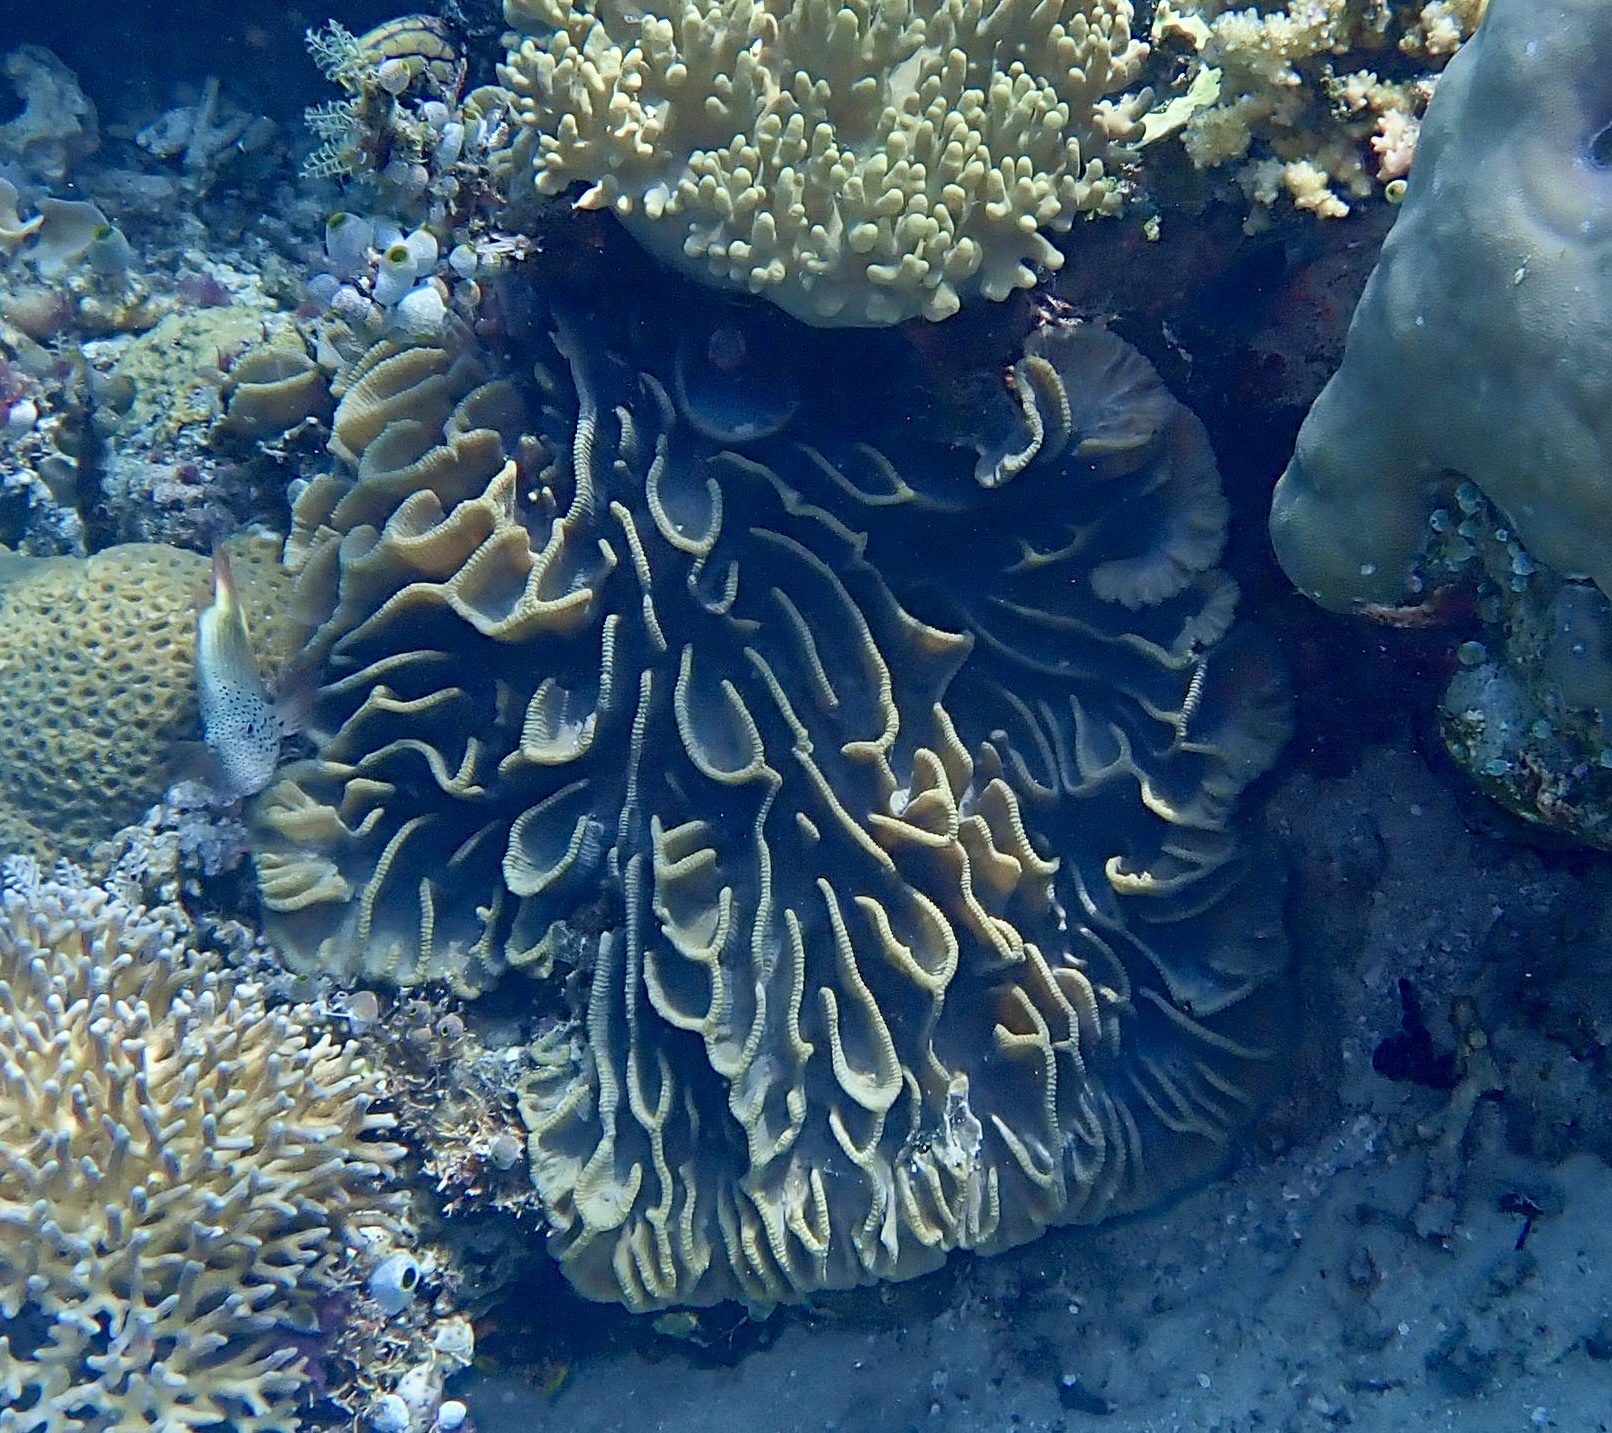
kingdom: Animalia
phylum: Cnidaria
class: Anthozoa
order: Scleractinia
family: Merulinidae
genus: Pectinia
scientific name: Pectinia lactuca
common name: Common lettuce coral
